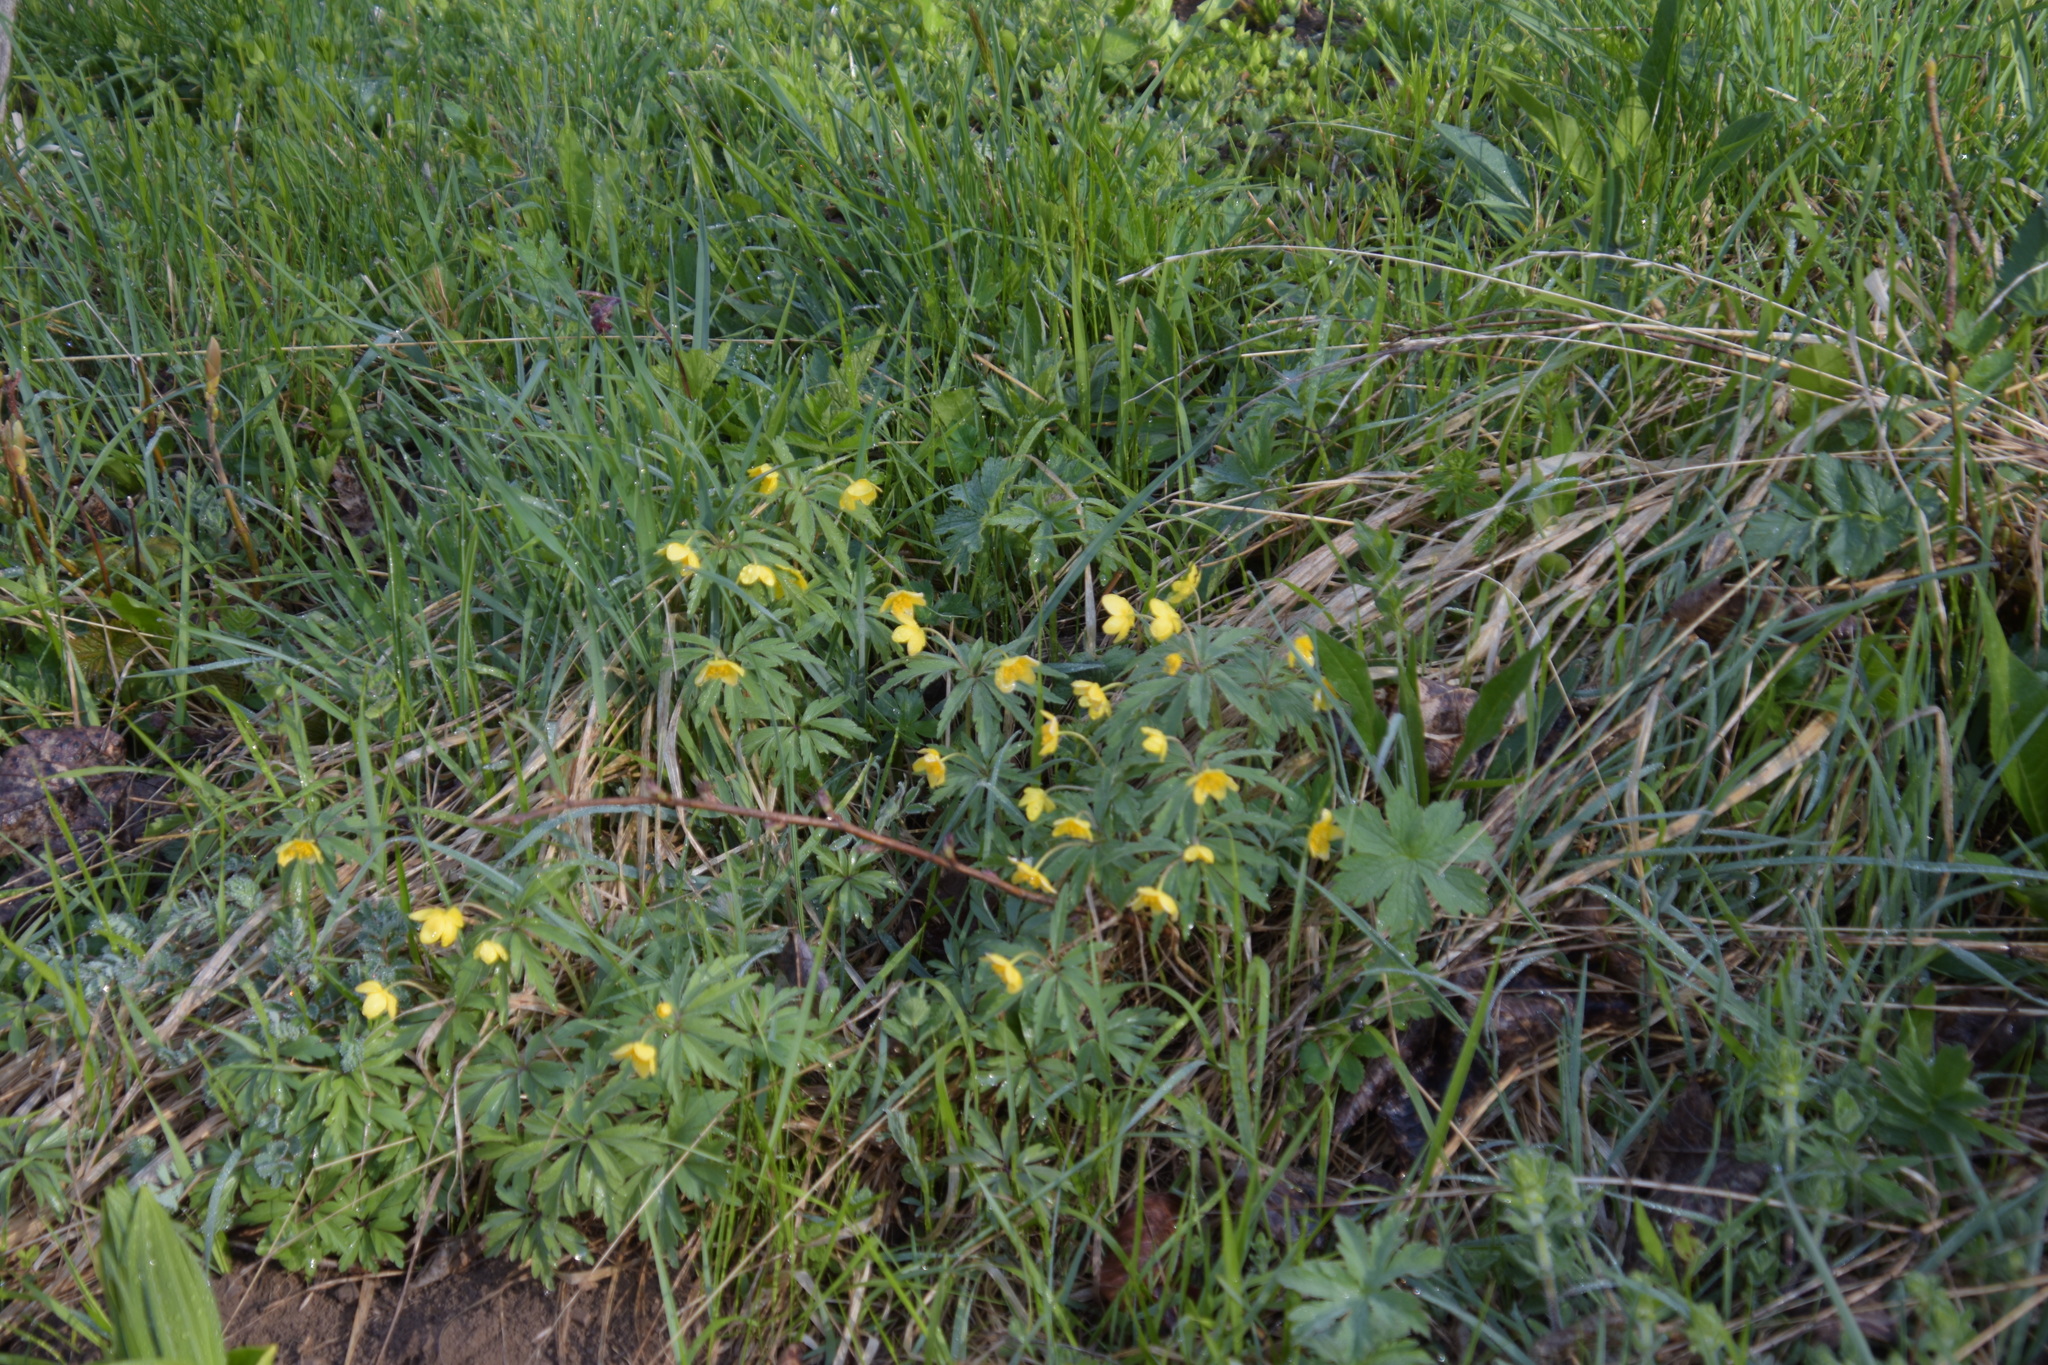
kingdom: Plantae
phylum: Tracheophyta
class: Magnoliopsida
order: Ranunculales
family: Ranunculaceae
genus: Anemone
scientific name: Anemone ranunculoides
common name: Yellow anemone
